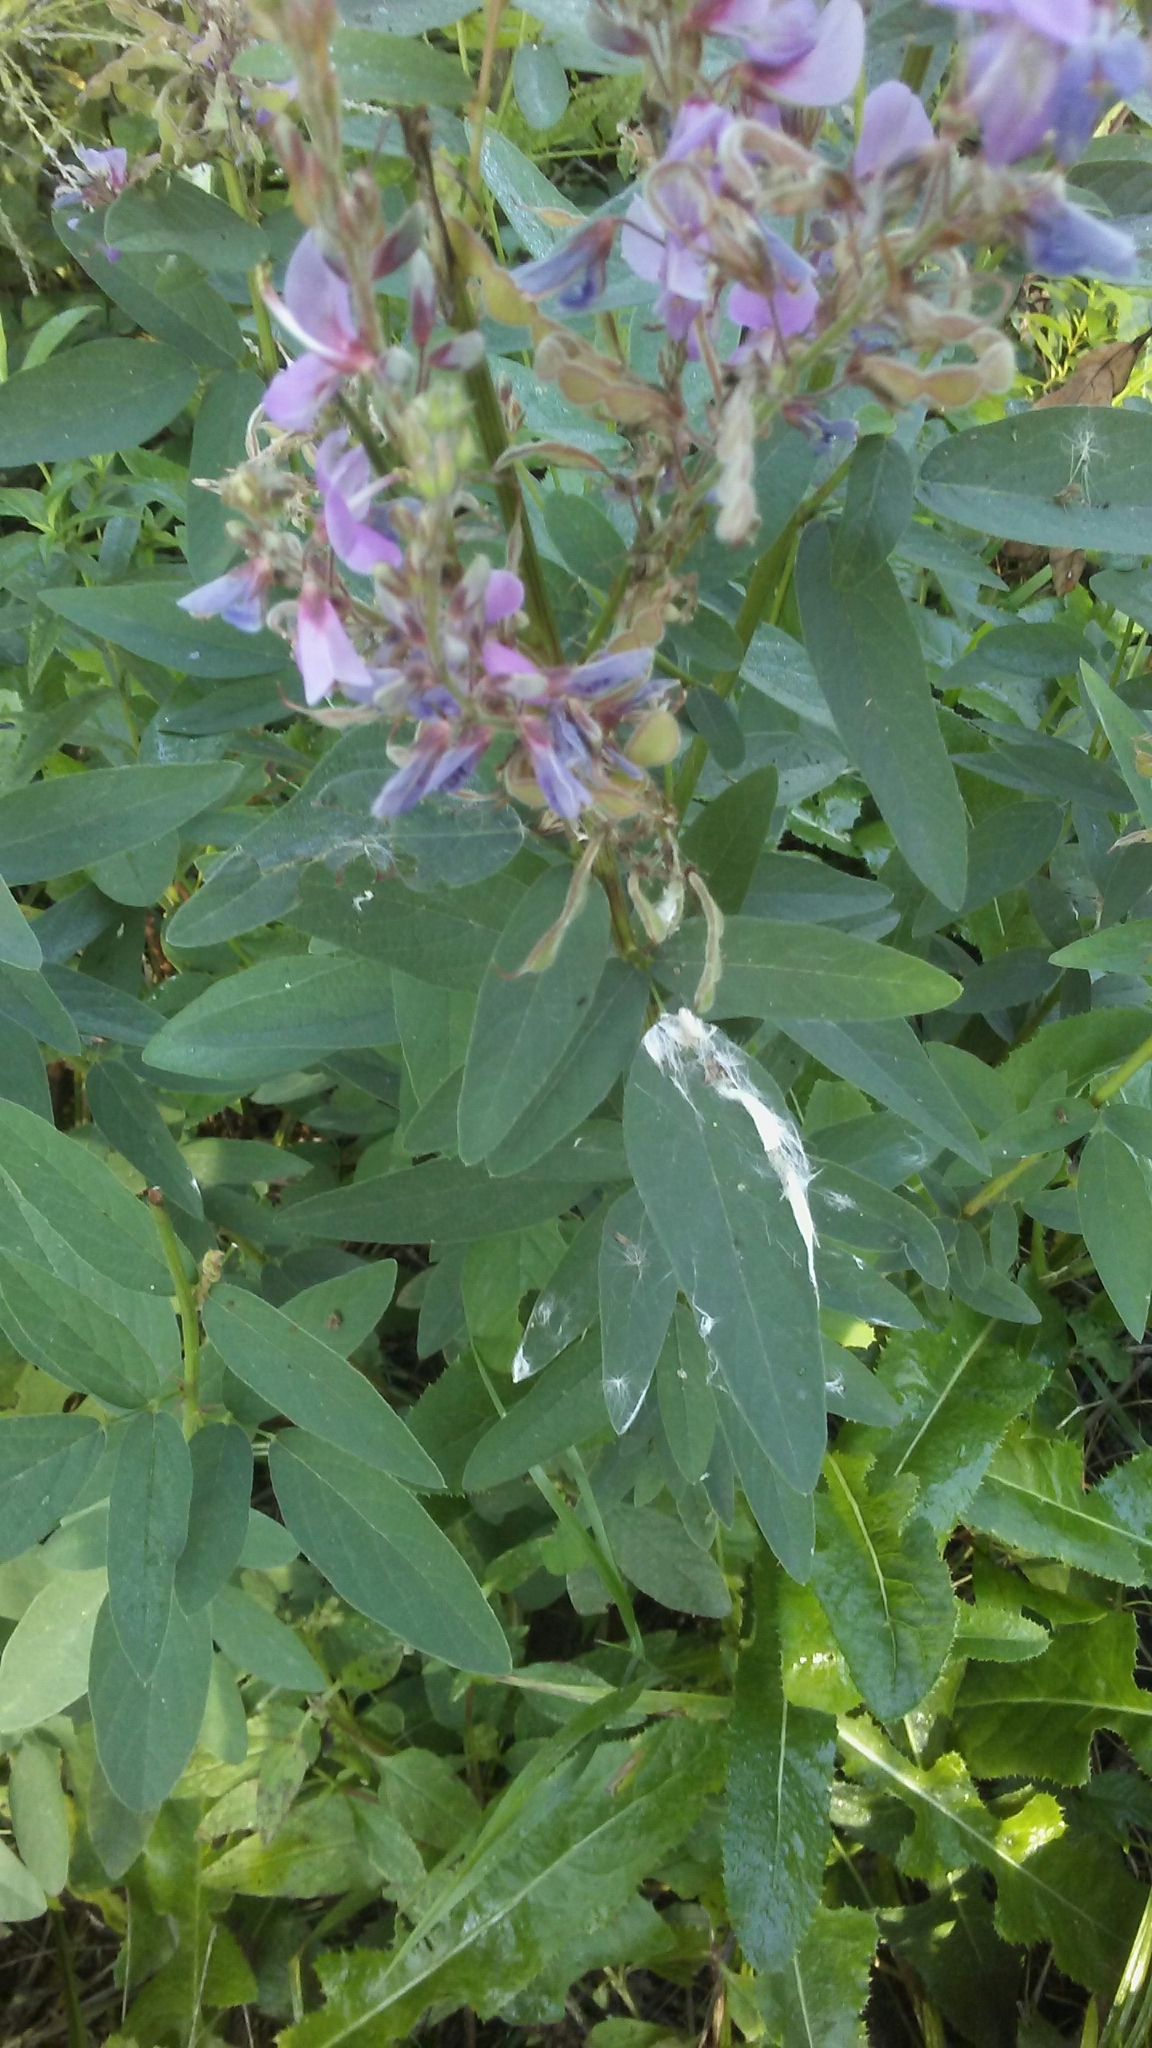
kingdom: Plantae
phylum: Tracheophyta
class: Magnoliopsida
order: Fabales
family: Fabaceae
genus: Desmodium
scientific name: Desmodium canadense
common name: Canada tick-trefoil
